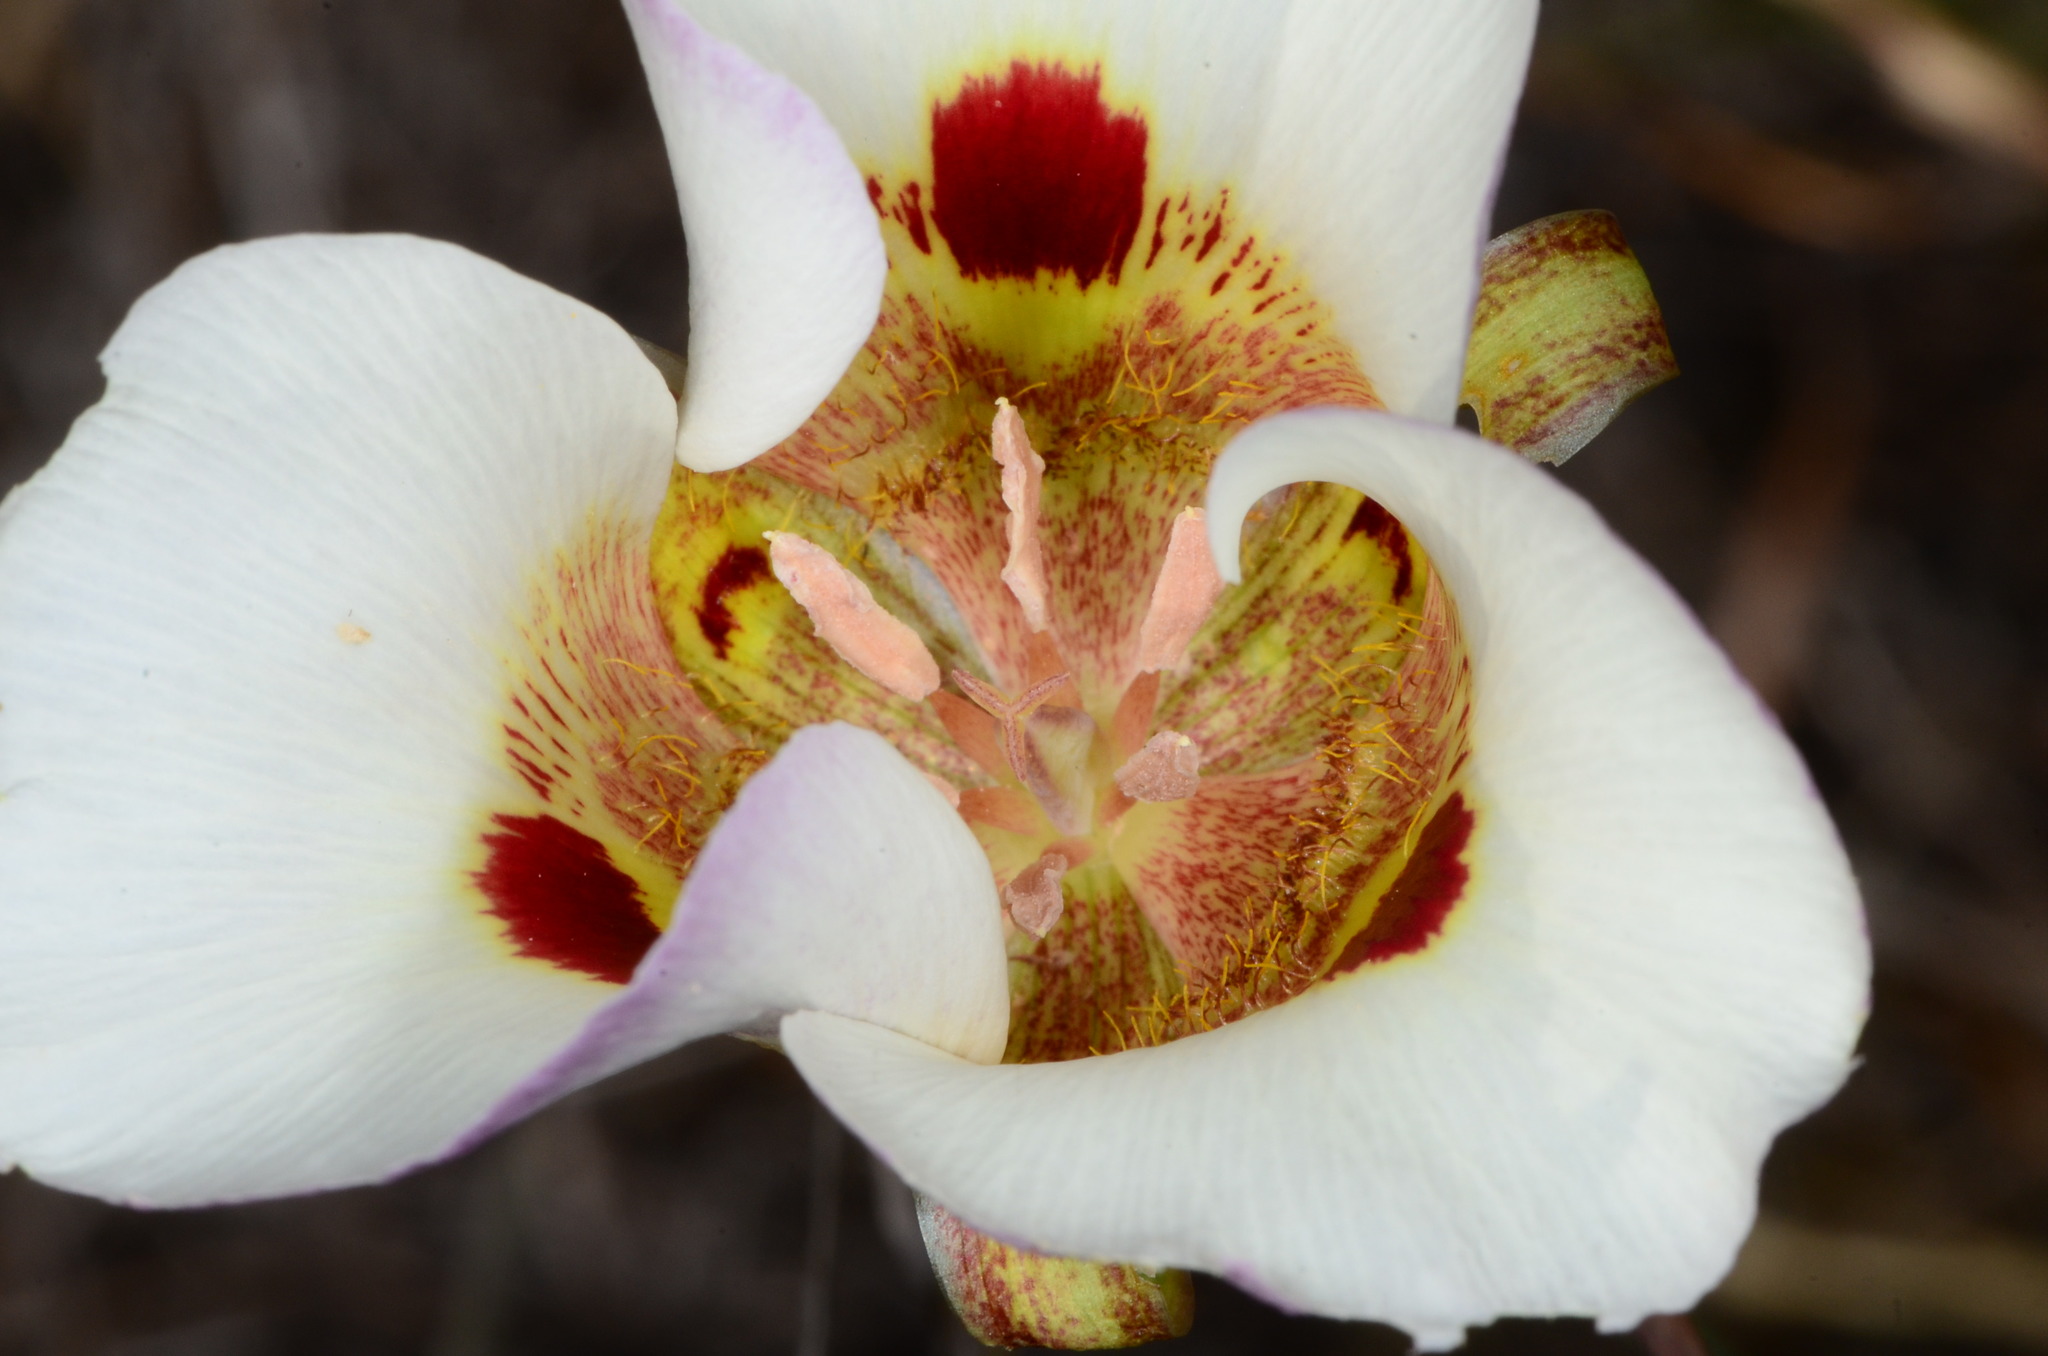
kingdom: Plantae
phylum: Tracheophyta
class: Liliopsida
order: Liliales
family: Liliaceae
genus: Calochortus
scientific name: Calochortus vestae
